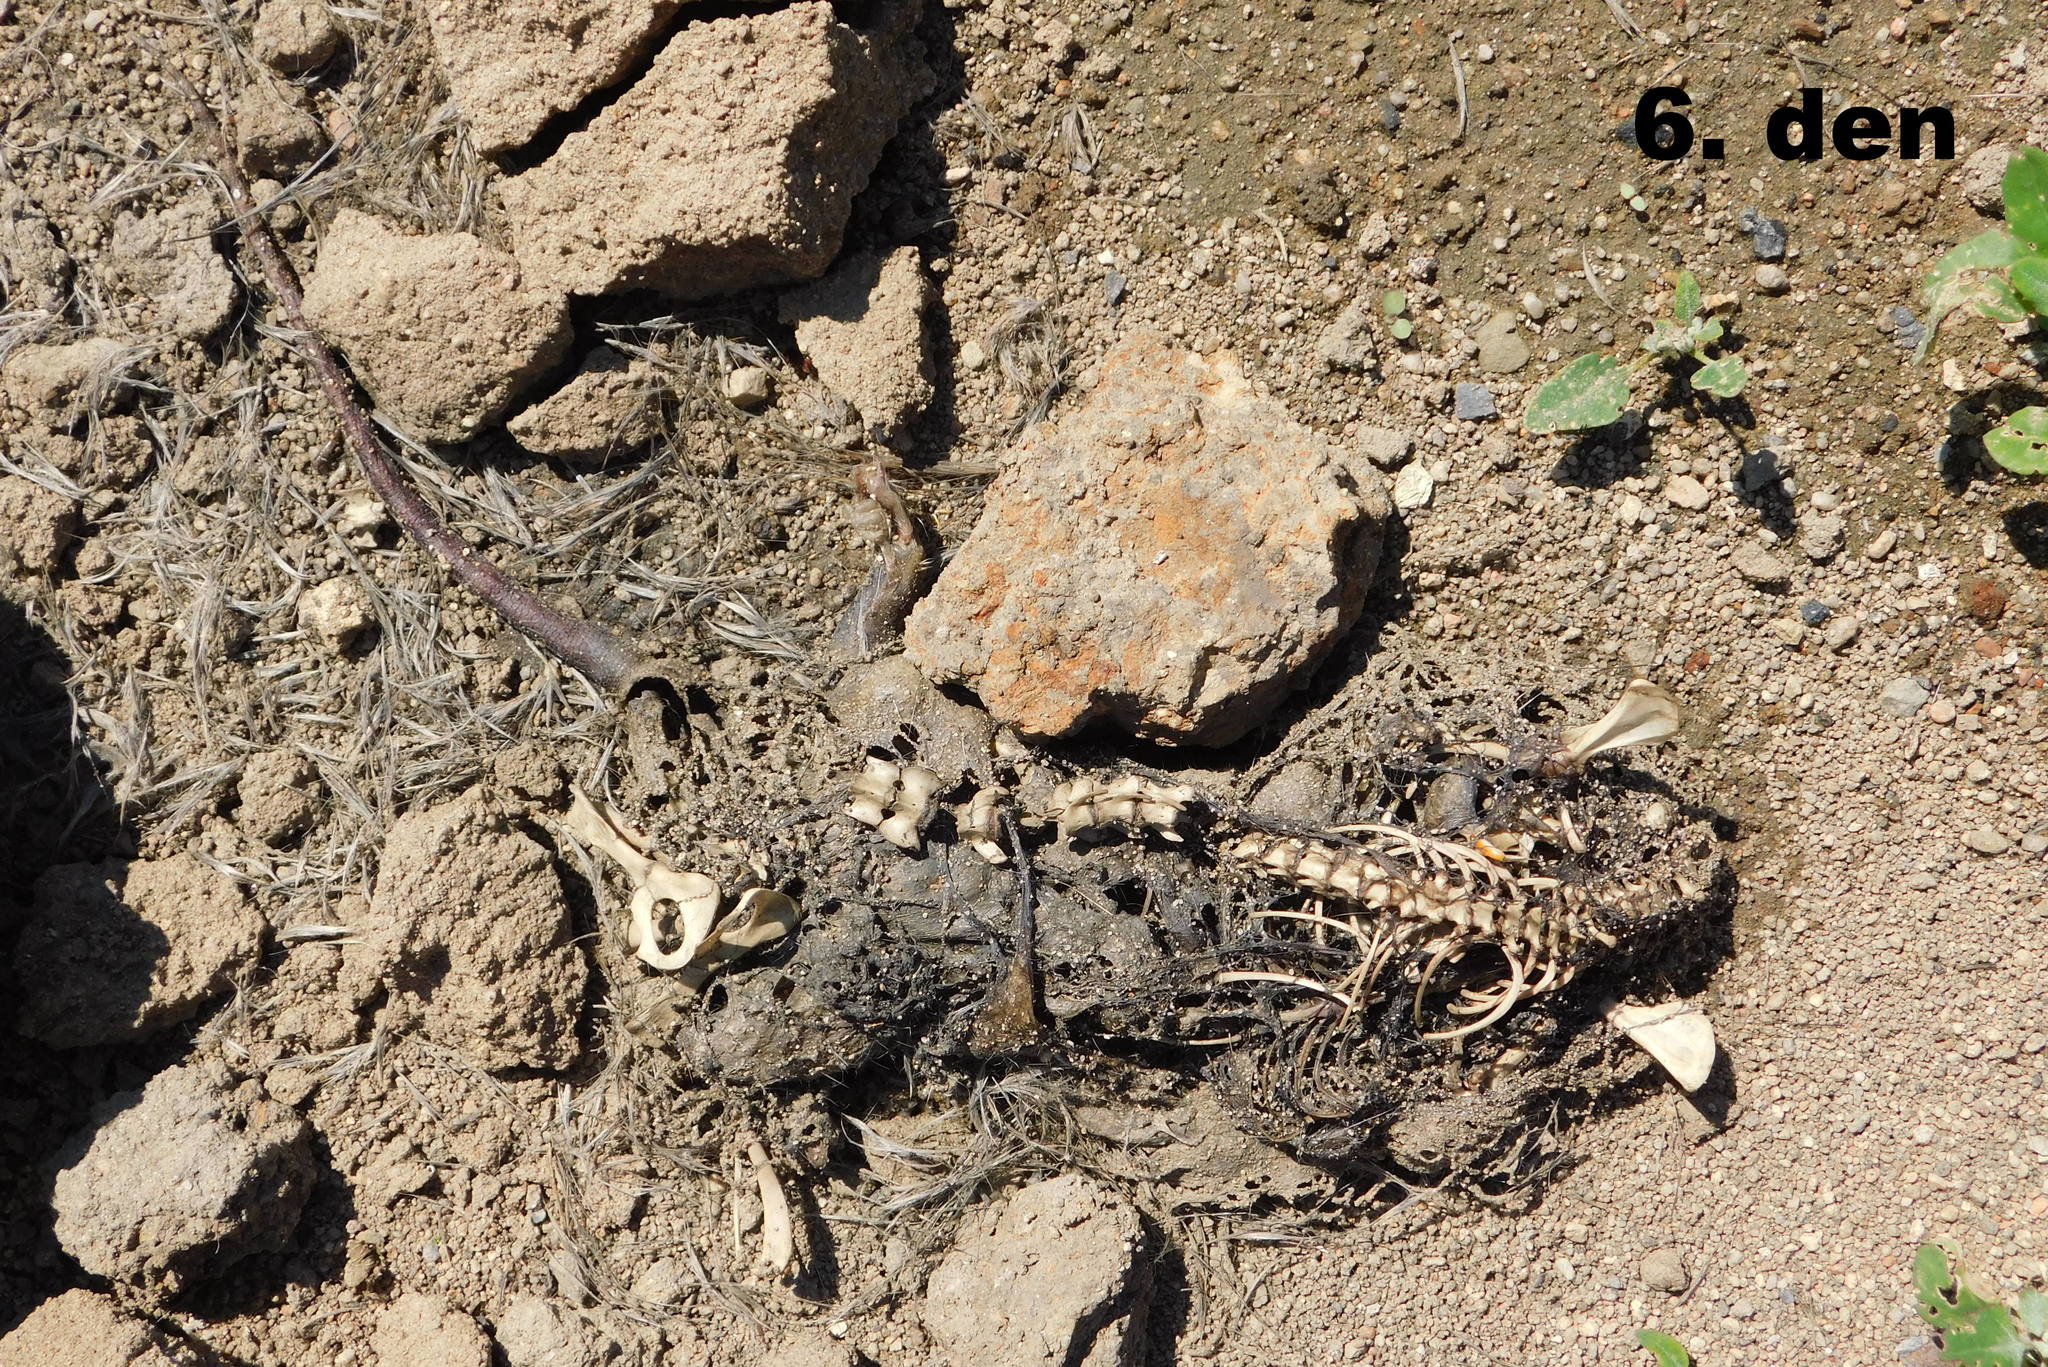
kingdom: Animalia
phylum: Chordata
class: Mammalia
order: Rodentia
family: Muridae
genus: Rattus
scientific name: Rattus norvegicus
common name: Brown rat
